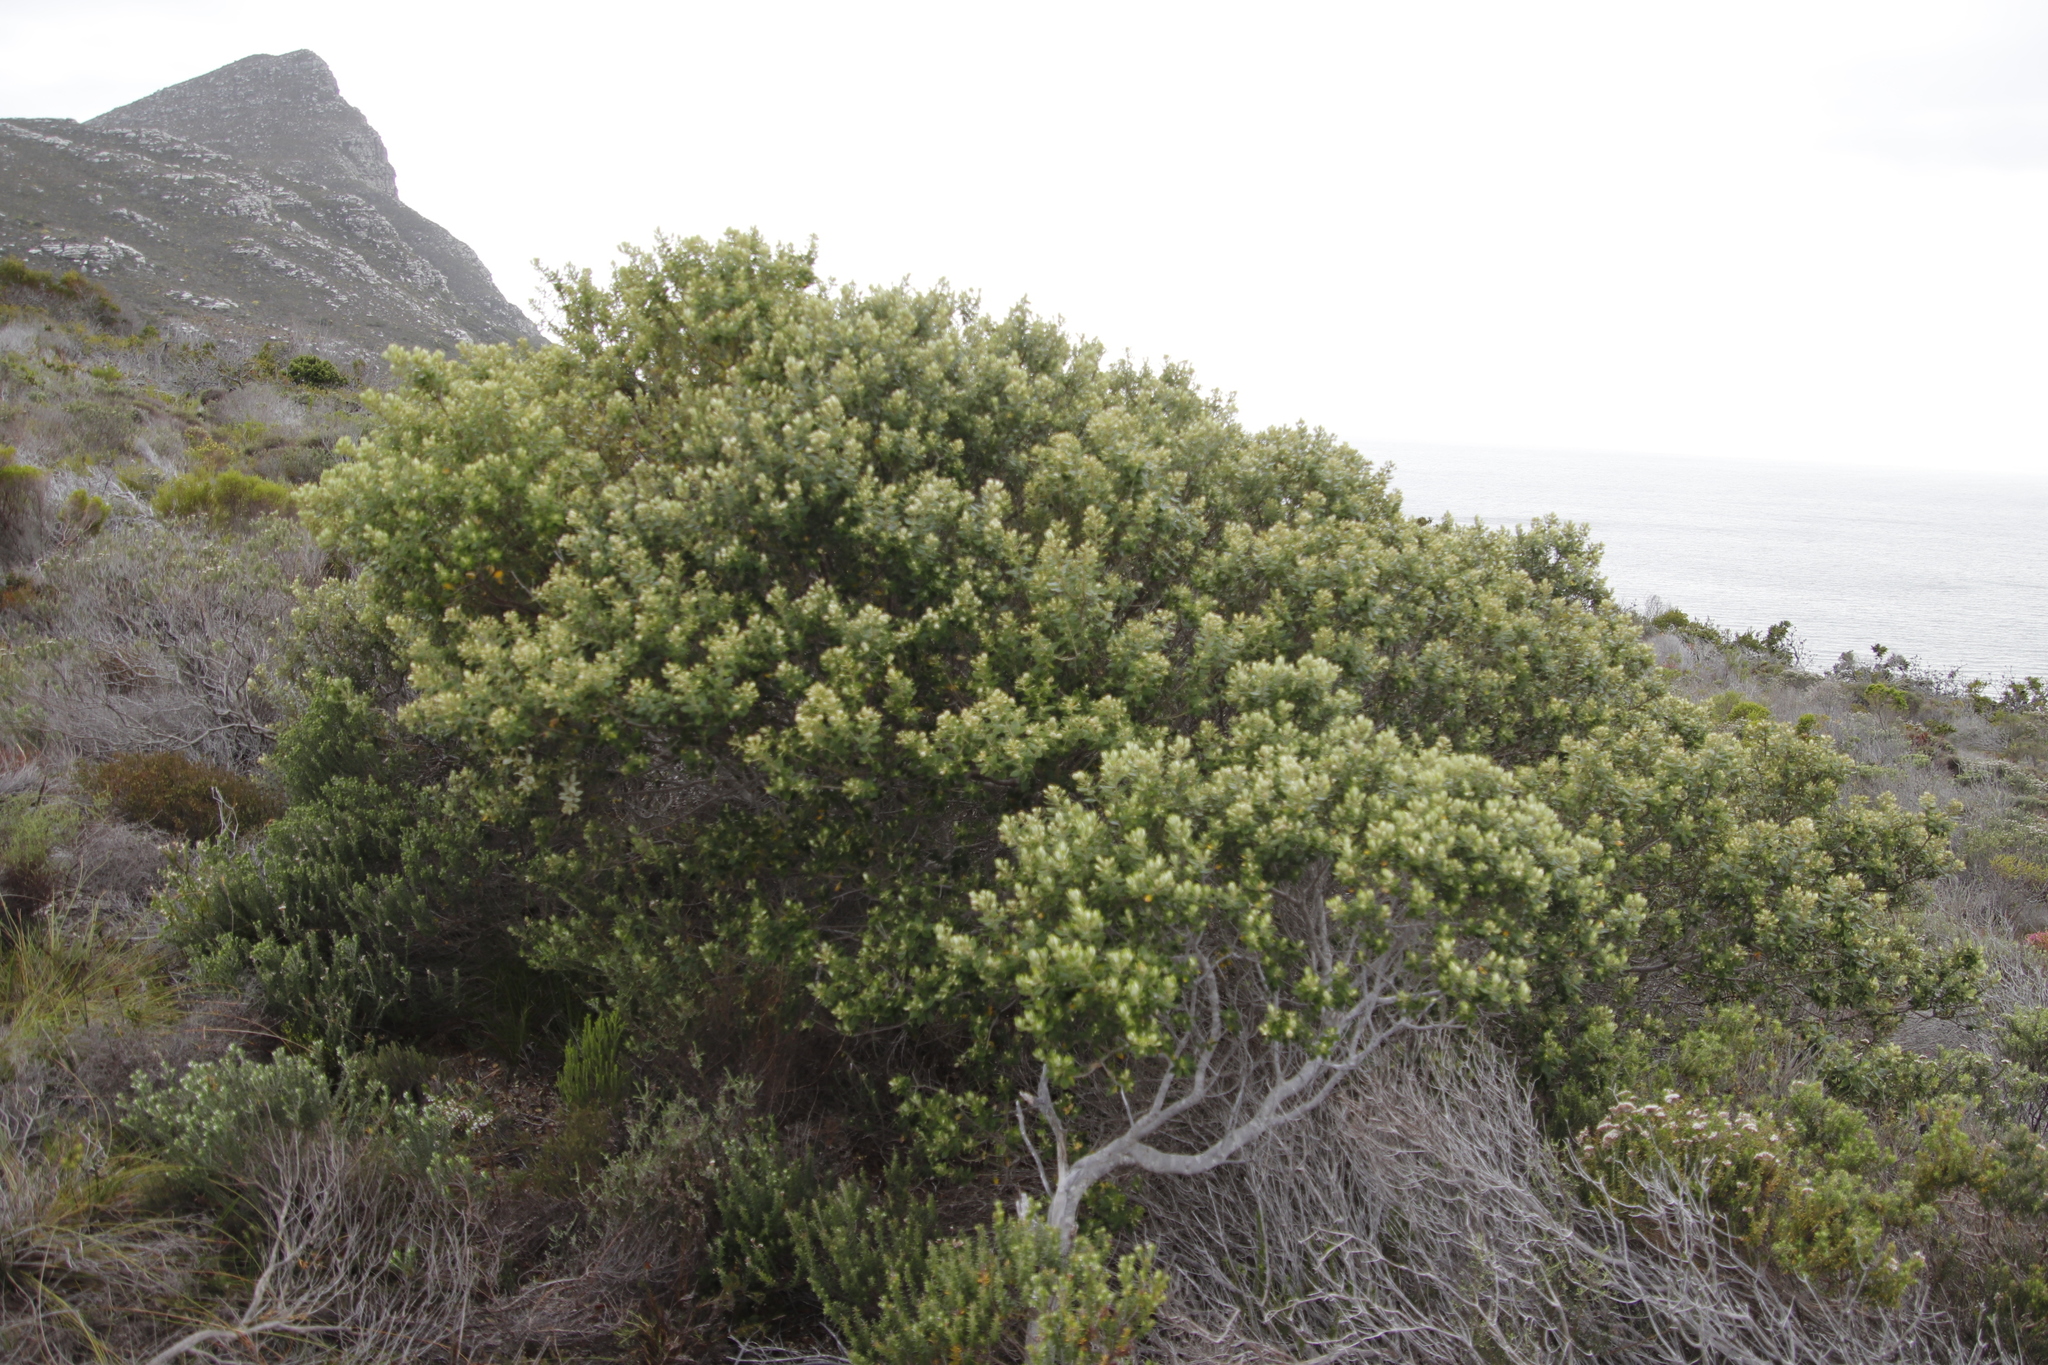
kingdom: Plantae
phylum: Tracheophyta
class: Magnoliopsida
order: Rosales
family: Rhamnaceae
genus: Phylica
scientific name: Phylica buxifolia
